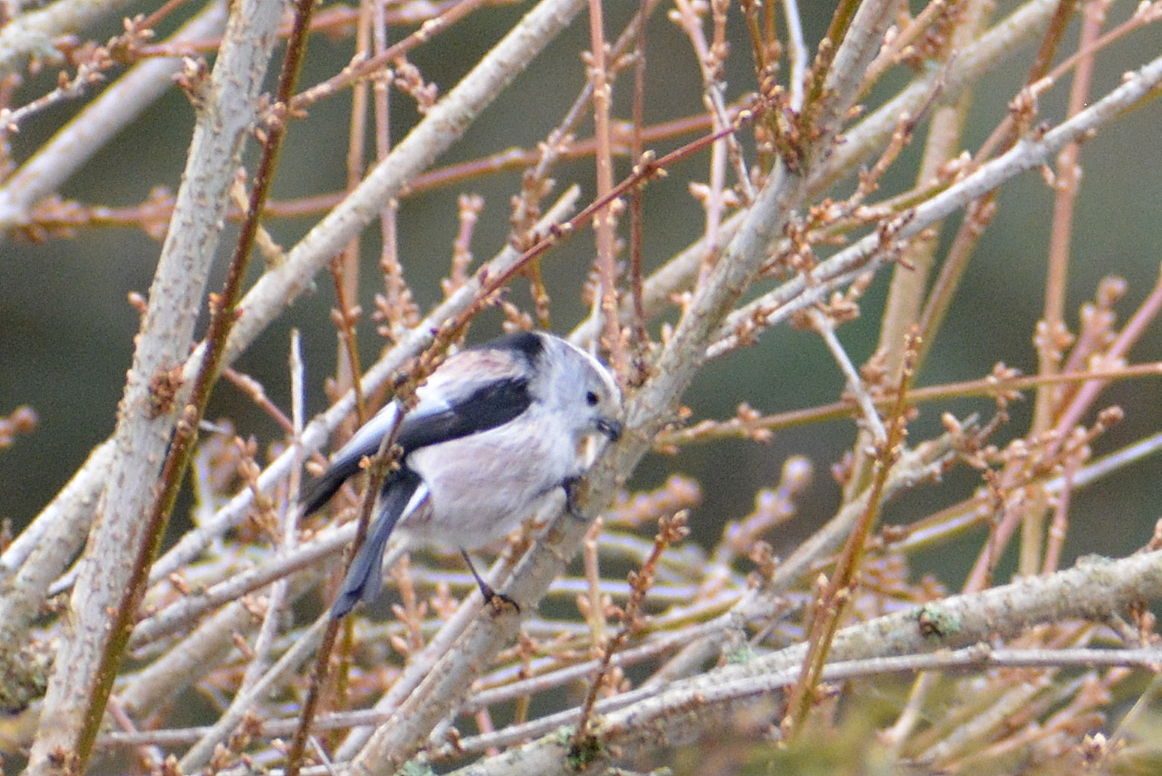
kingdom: Animalia
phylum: Chordata
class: Aves
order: Passeriformes
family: Aegithalidae
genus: Aegithalos
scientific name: Aegithalos caudatus
